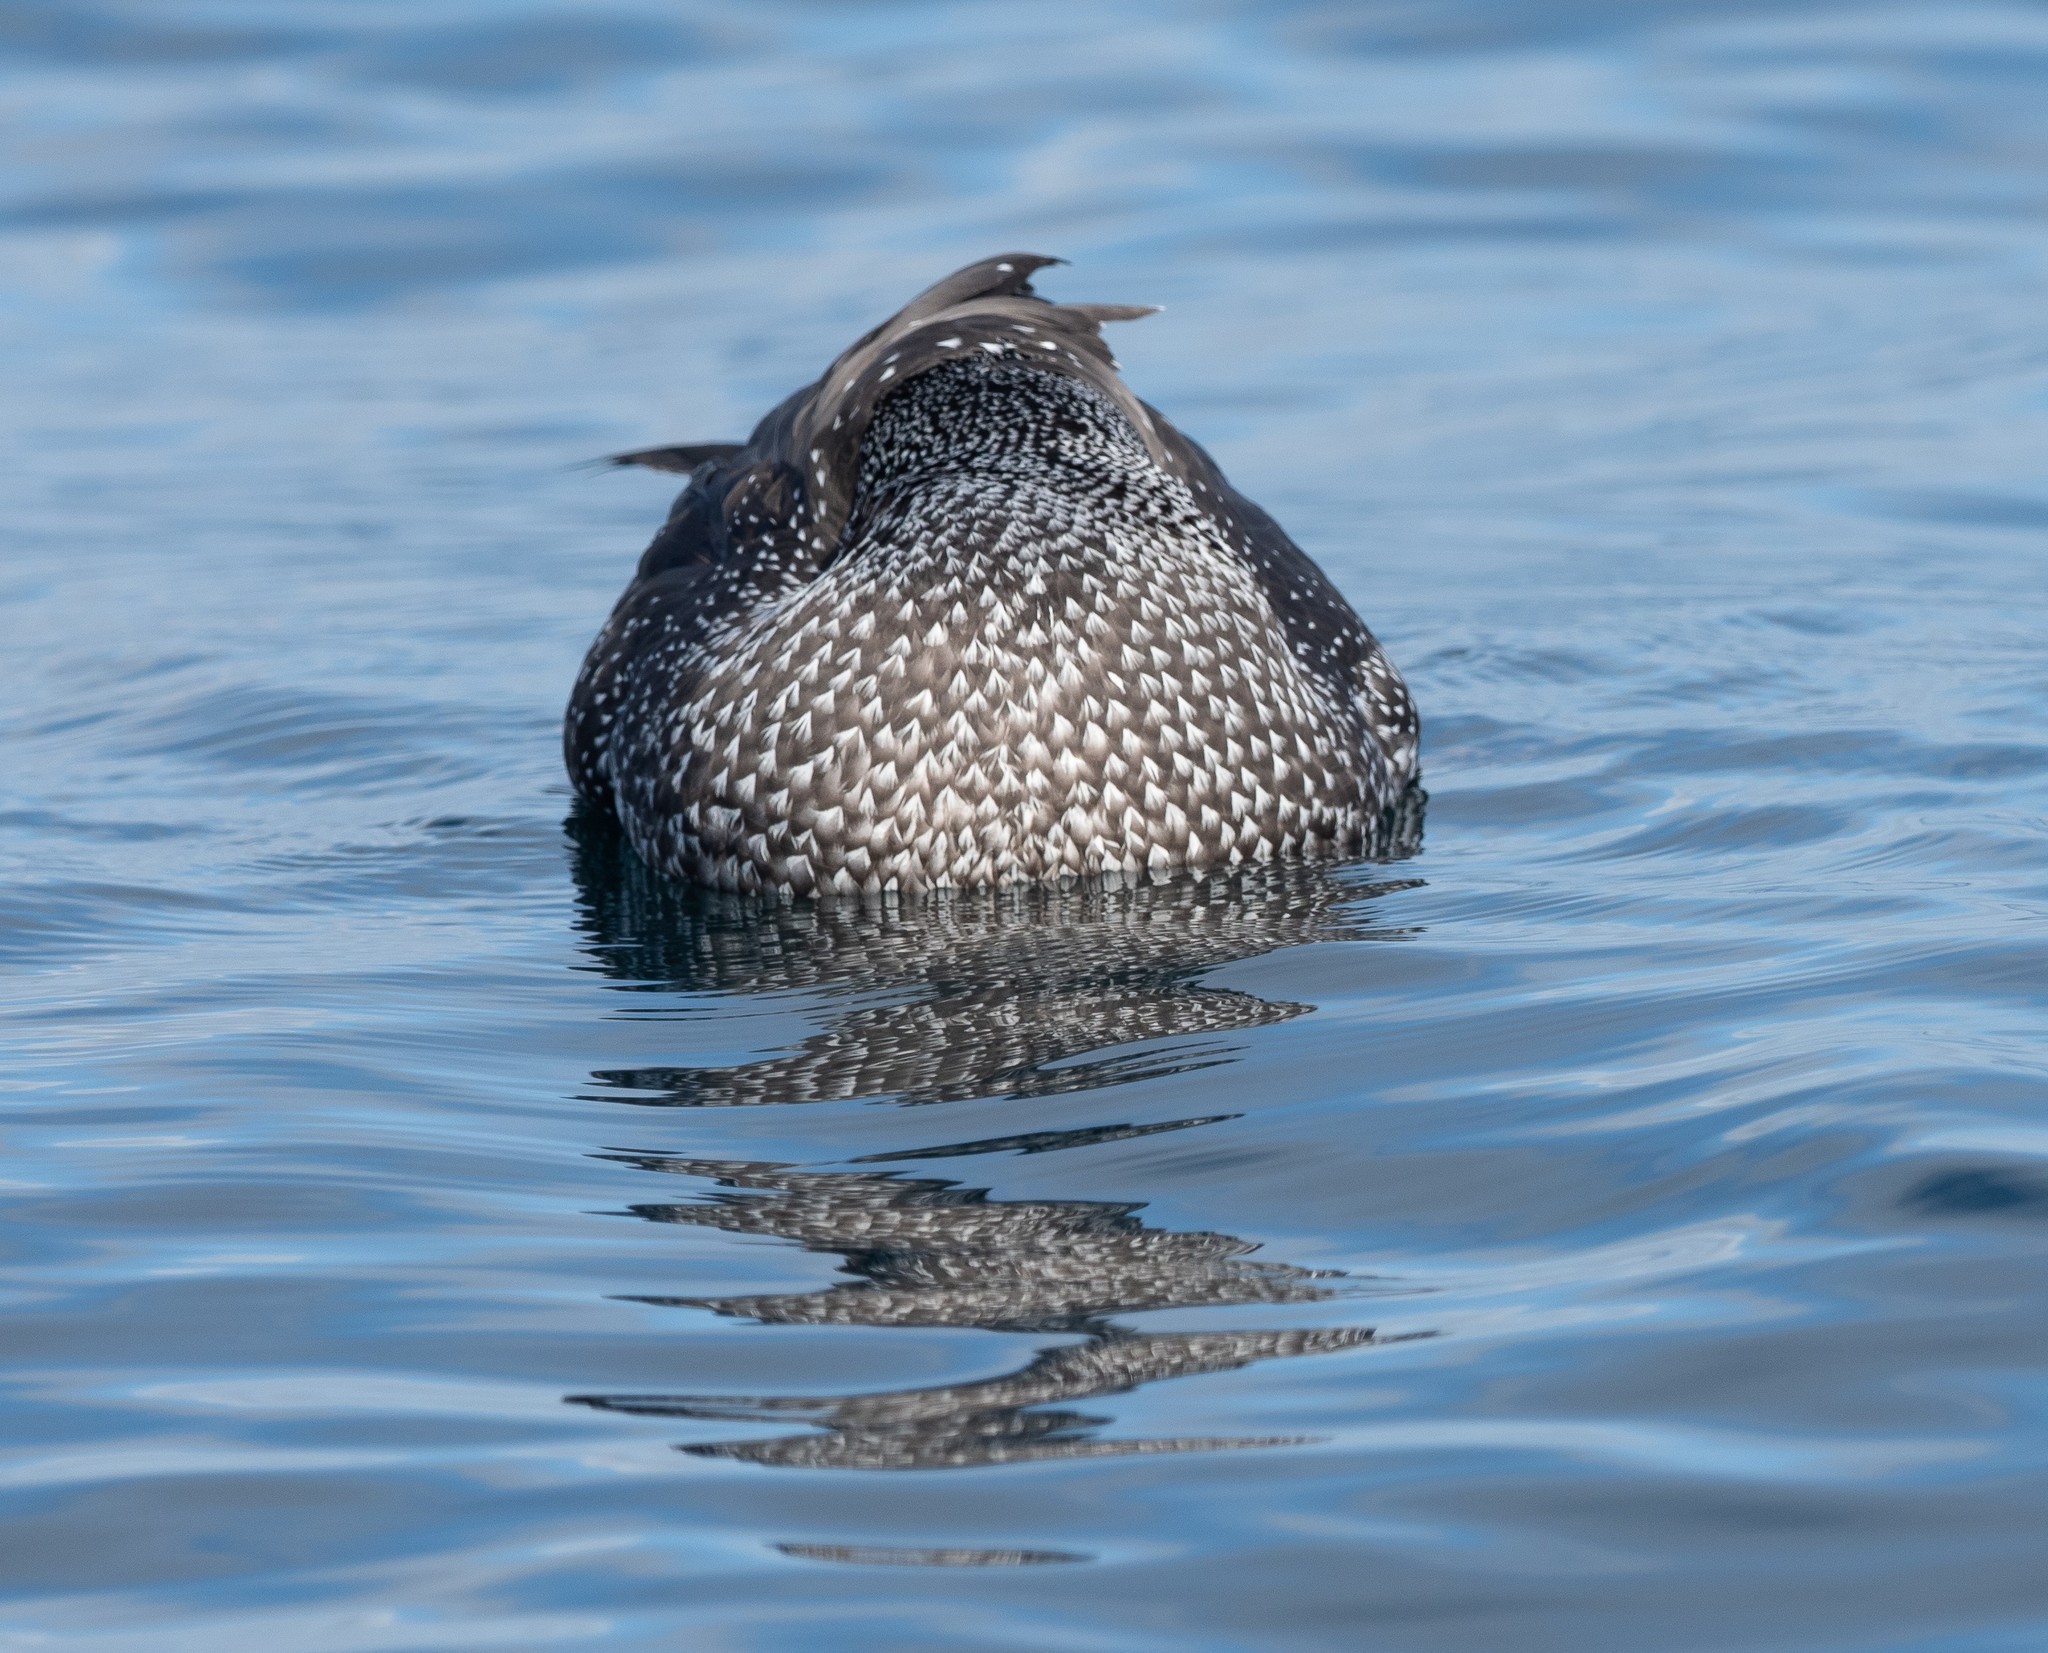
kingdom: Animalia
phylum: Chordata
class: Aves
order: Suliformes
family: Sulidae
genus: Morus
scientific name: Morus bassanus
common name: Northern gannet
